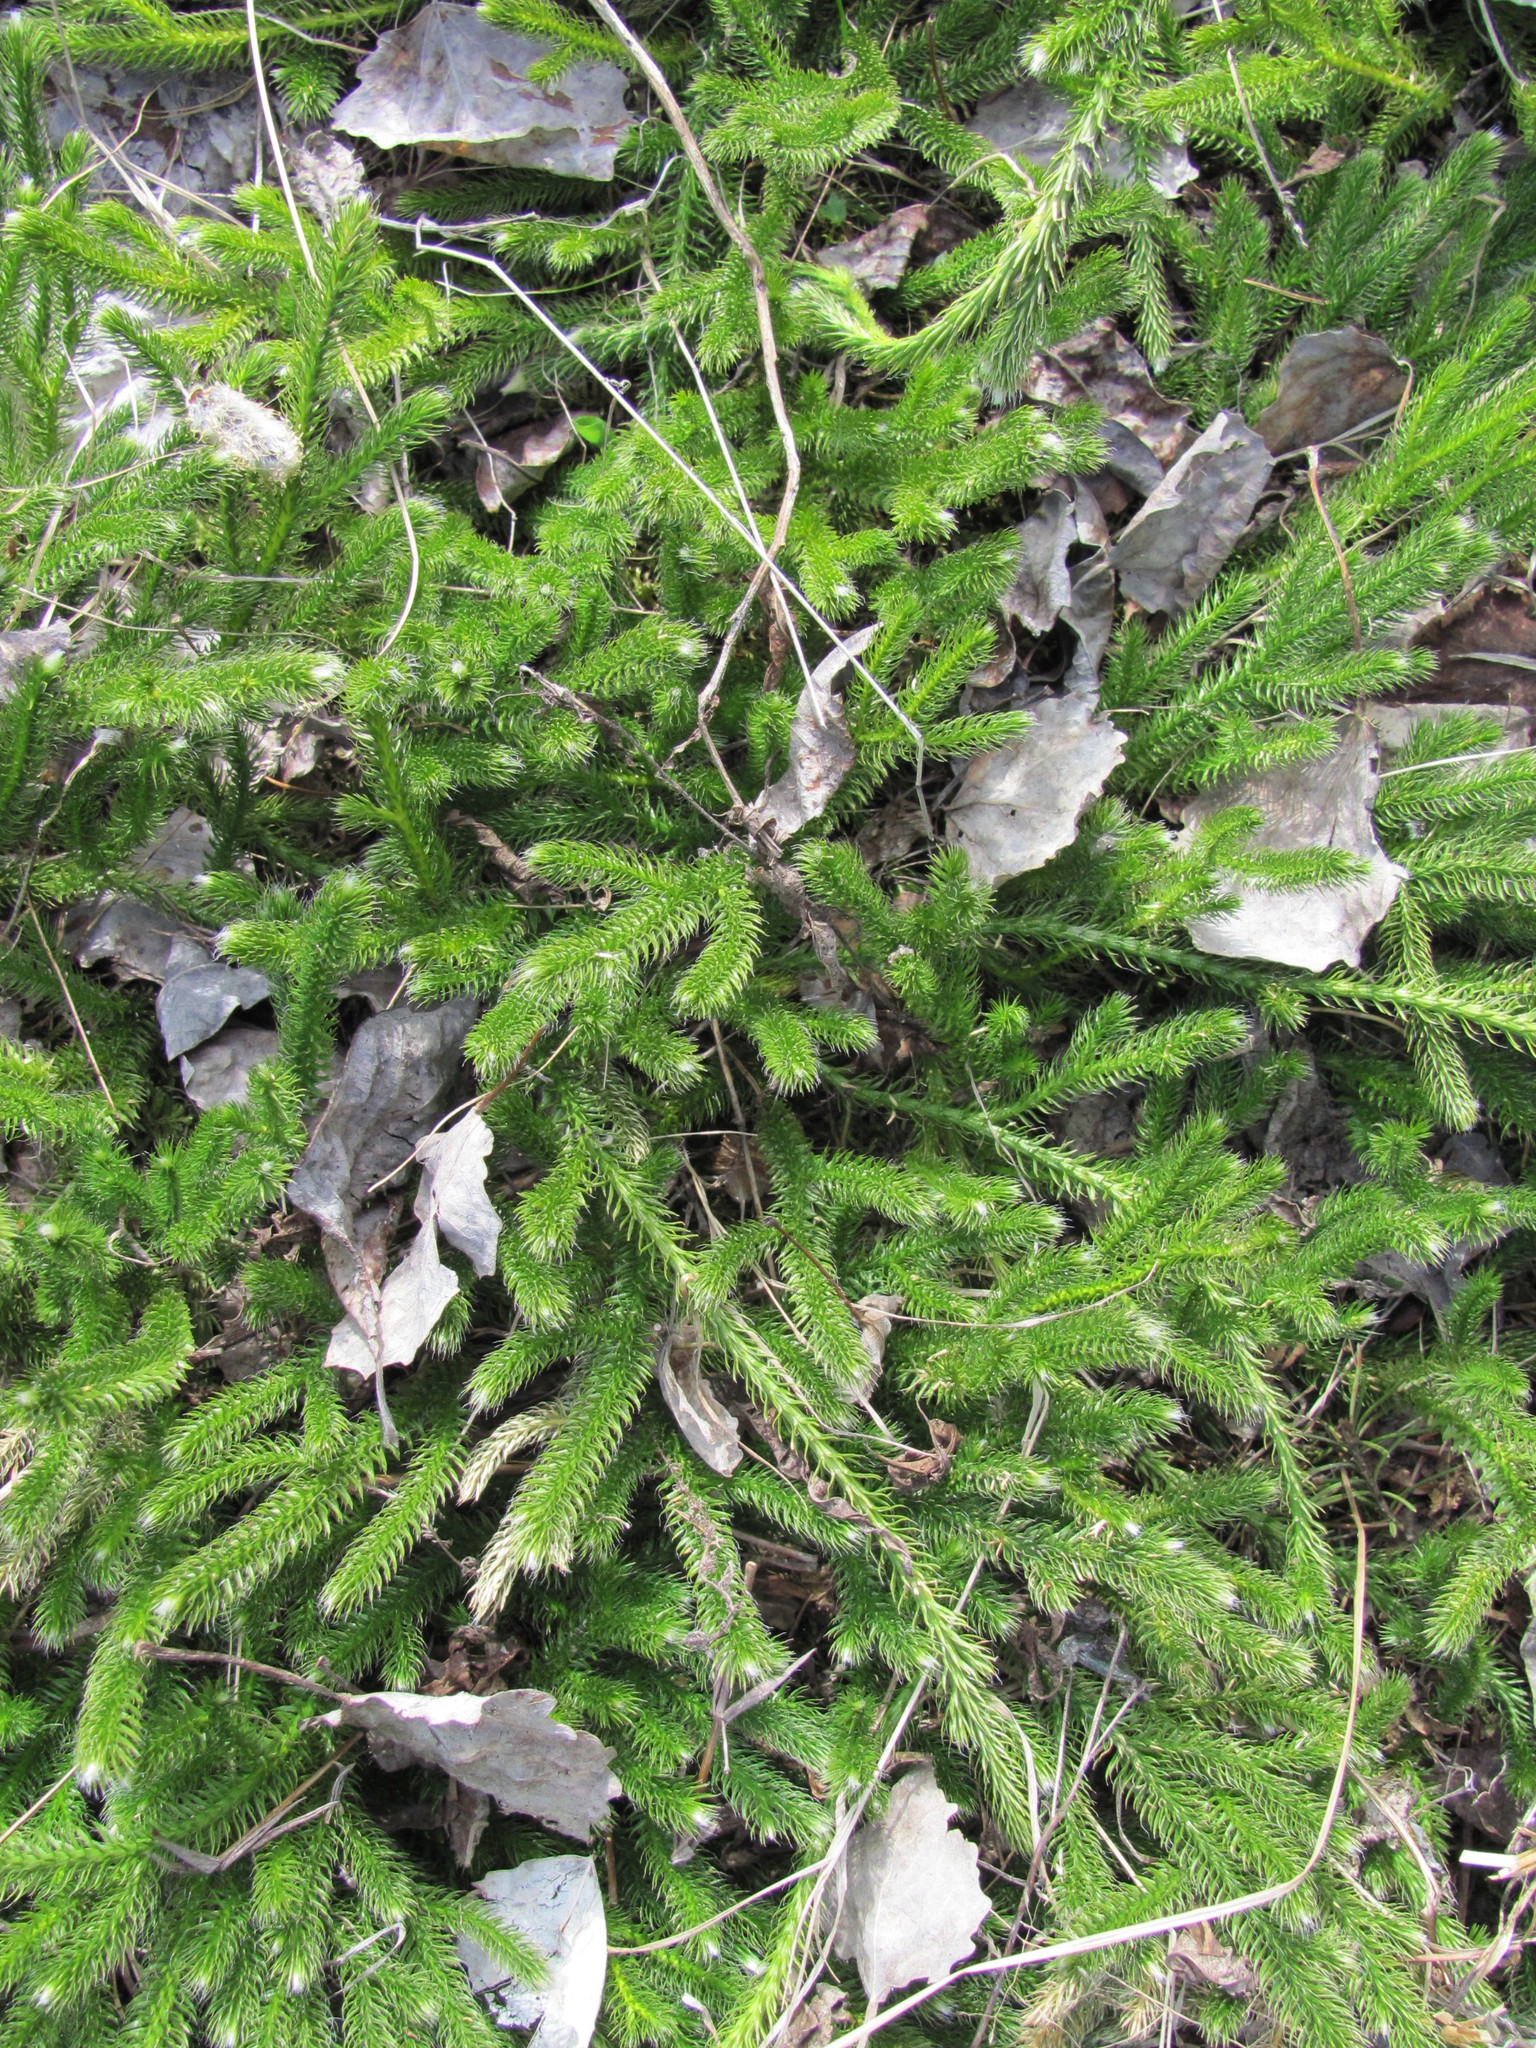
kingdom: Plantae
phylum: Tracheophyta
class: Lycopodiopsida
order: Lycopodiales
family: Lycopodiaceae
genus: Lycopodium
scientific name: Lycopodium clavatum
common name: Stag's-horn clubmoss
